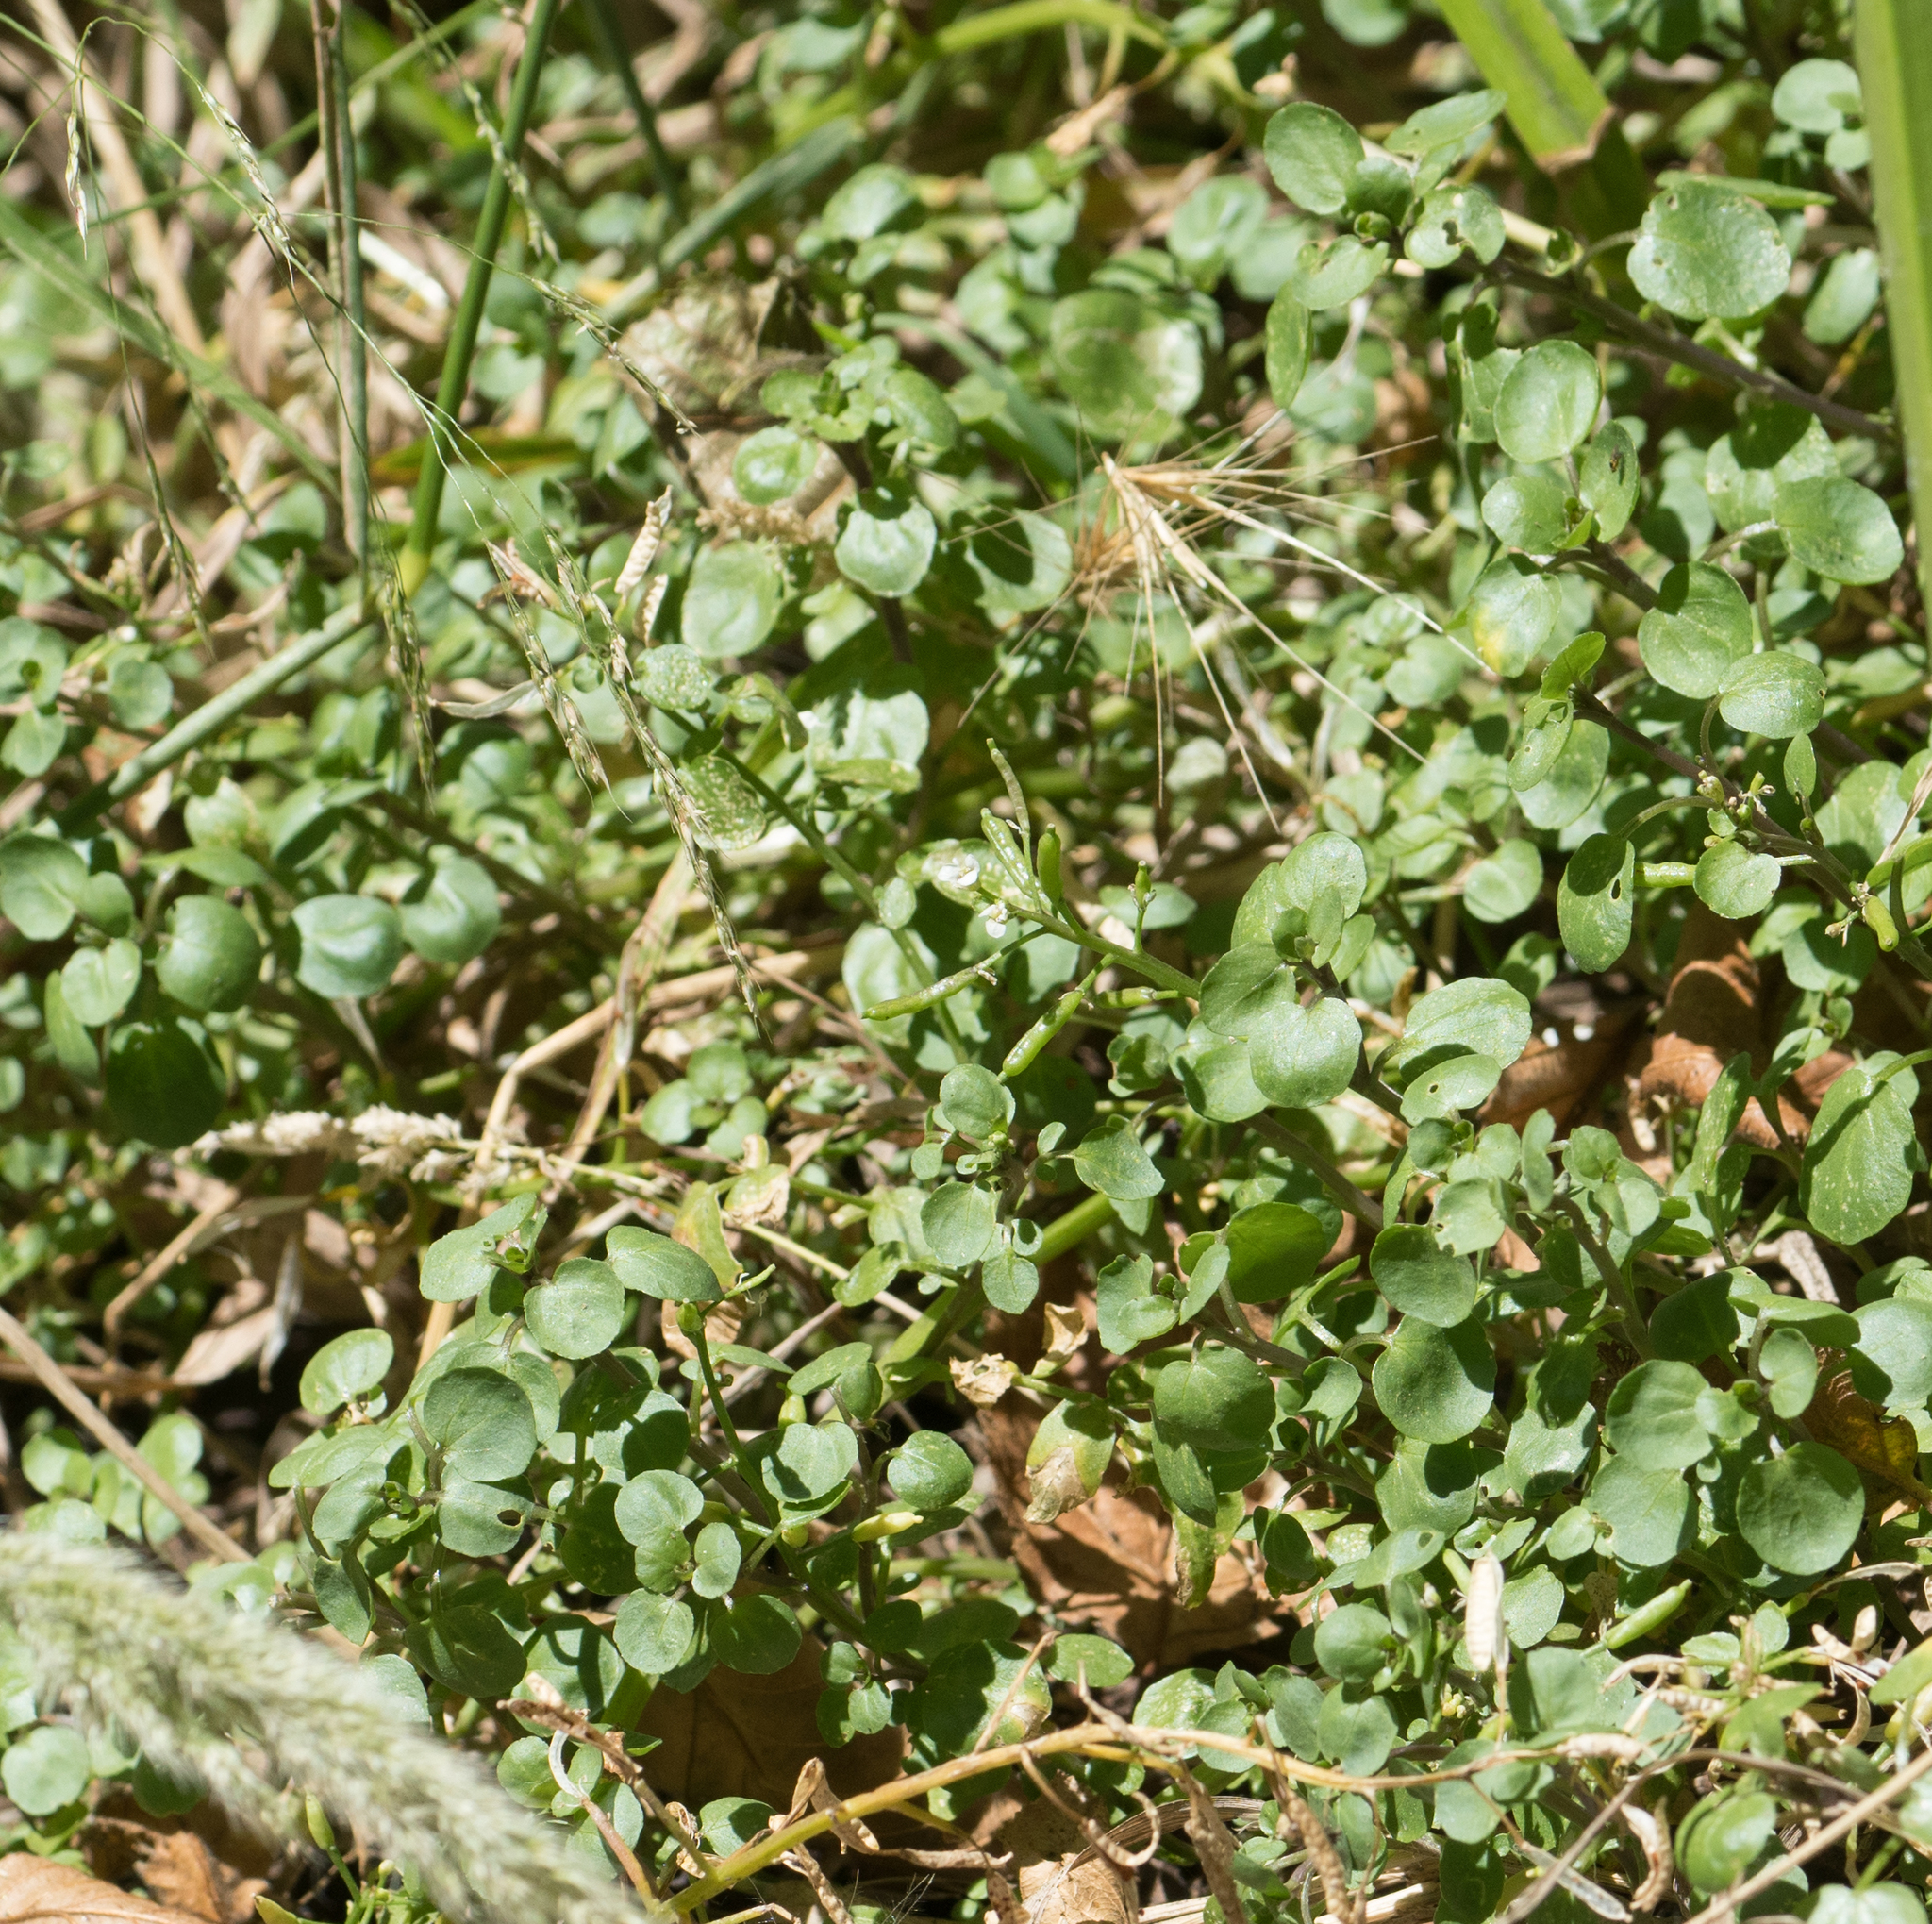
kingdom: Plantae
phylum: Tracheophyta
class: Magnoliopsida
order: Brassicales
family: Brassicaceae
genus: Nasturtium
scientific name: Nasturtium officinale
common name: Watercress
